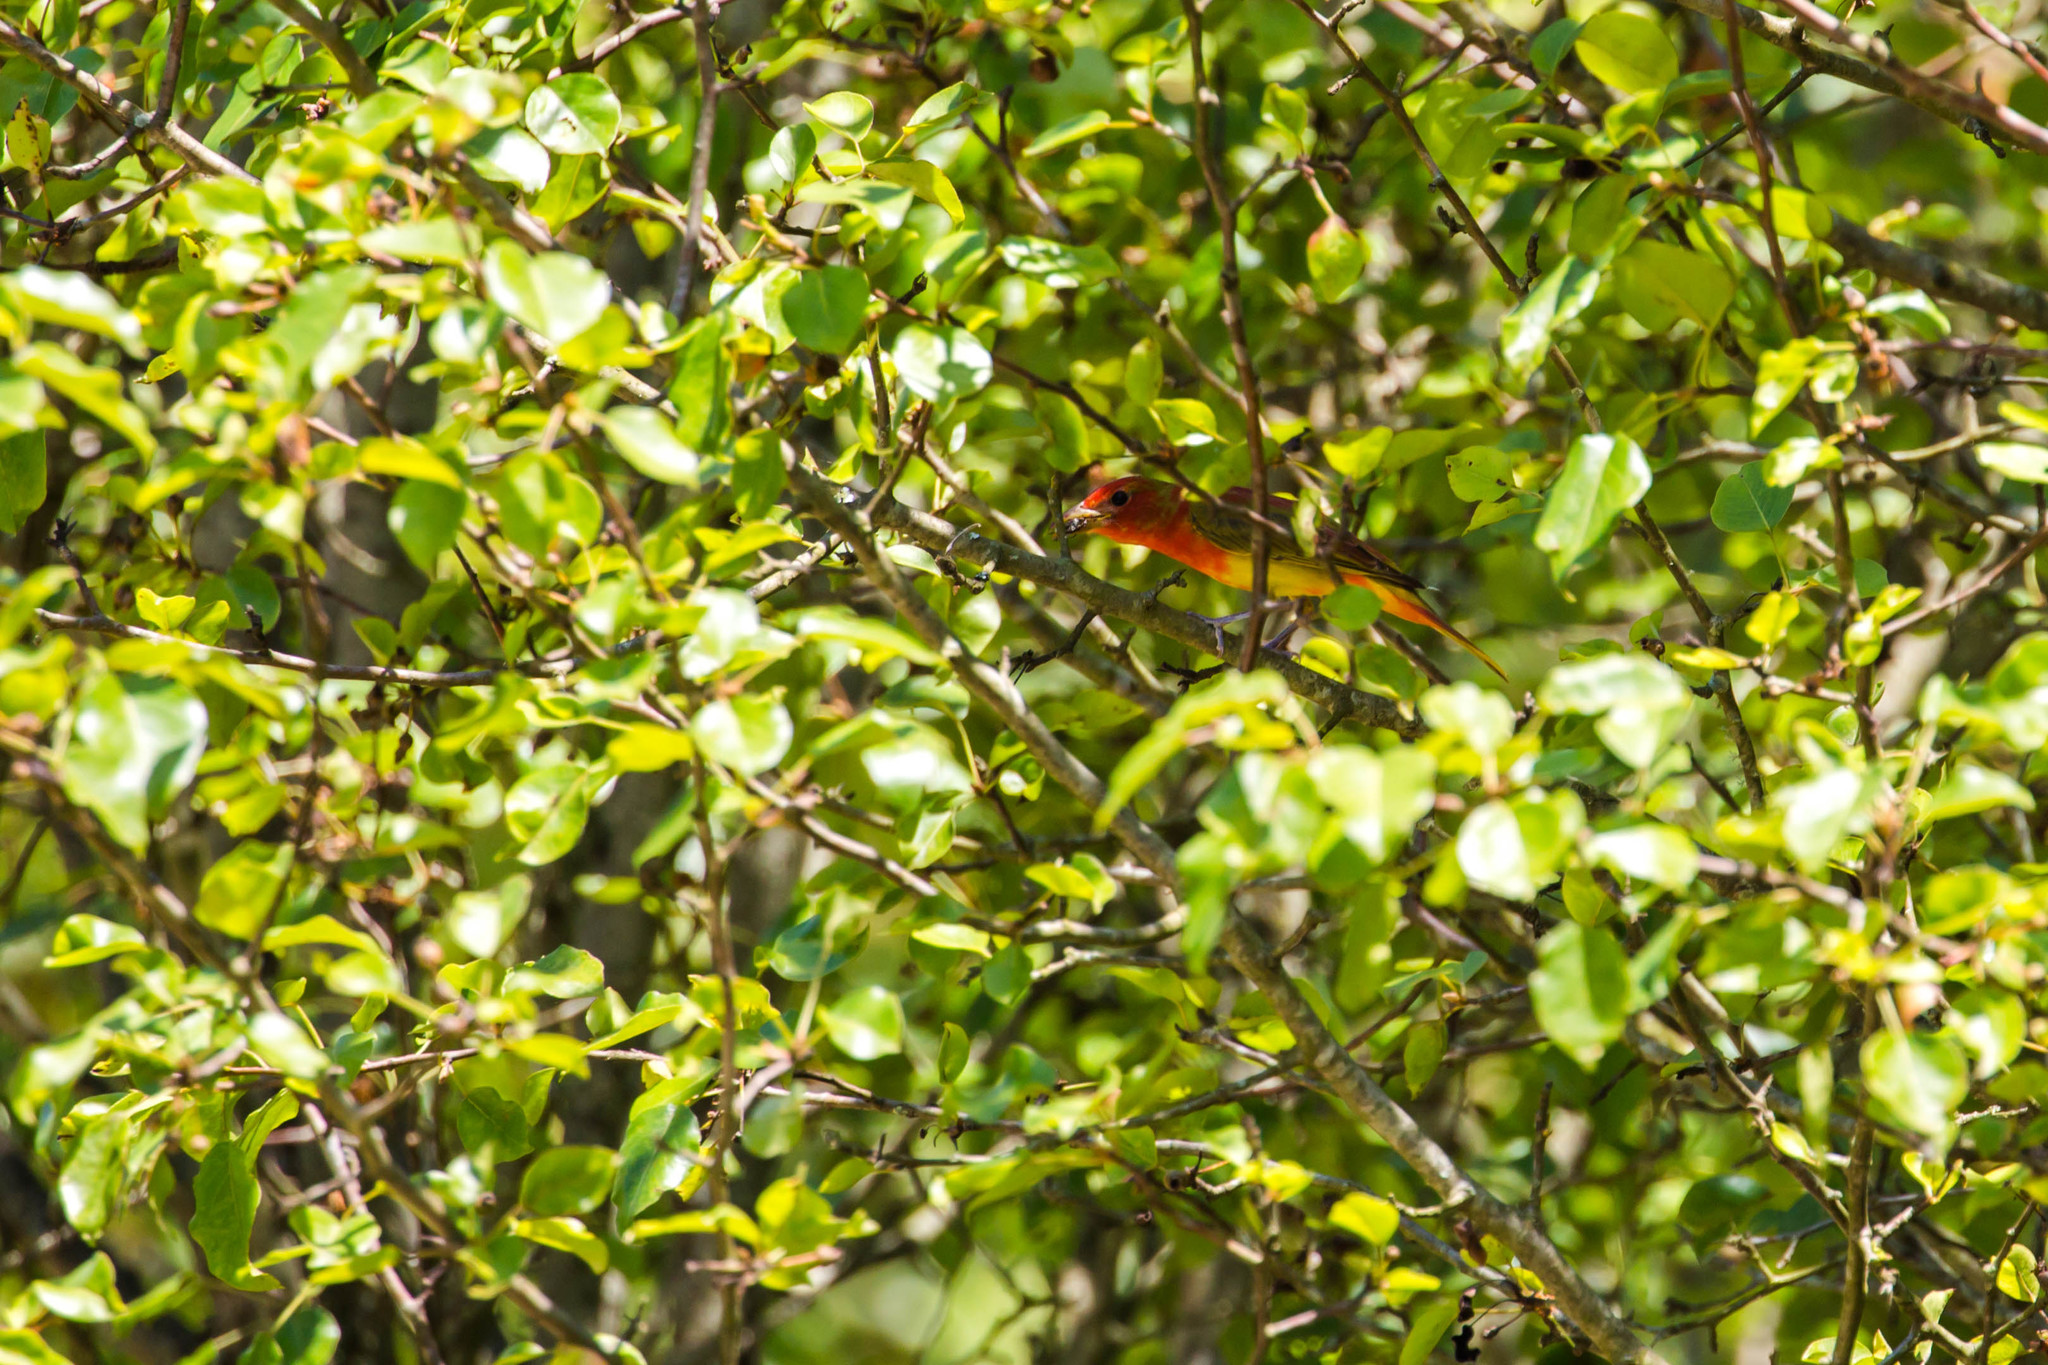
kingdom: Animalia
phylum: Chordata
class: Aves
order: Passeriformes
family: Cardinalidae
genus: Piranga
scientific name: Piranga rubra
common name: Summer tanager
